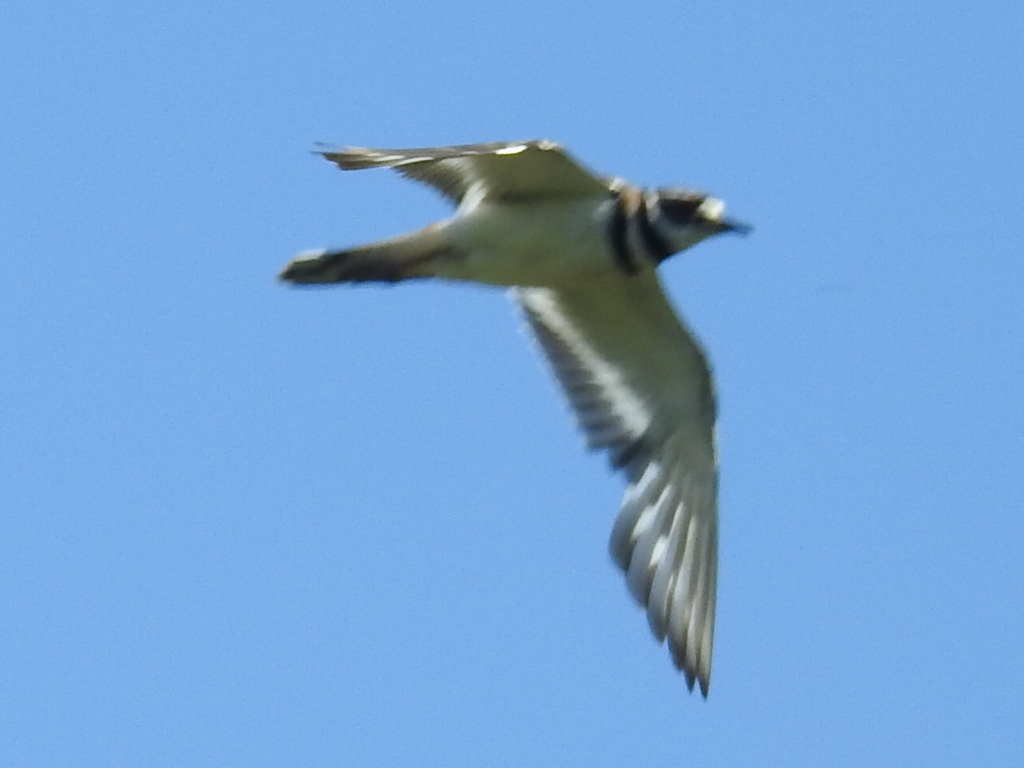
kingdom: Animalia
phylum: Chordata
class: Aves
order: Charadriiformes
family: Charadriidae
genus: Charadrius
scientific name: Charadrius vociferus
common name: Killdeer
